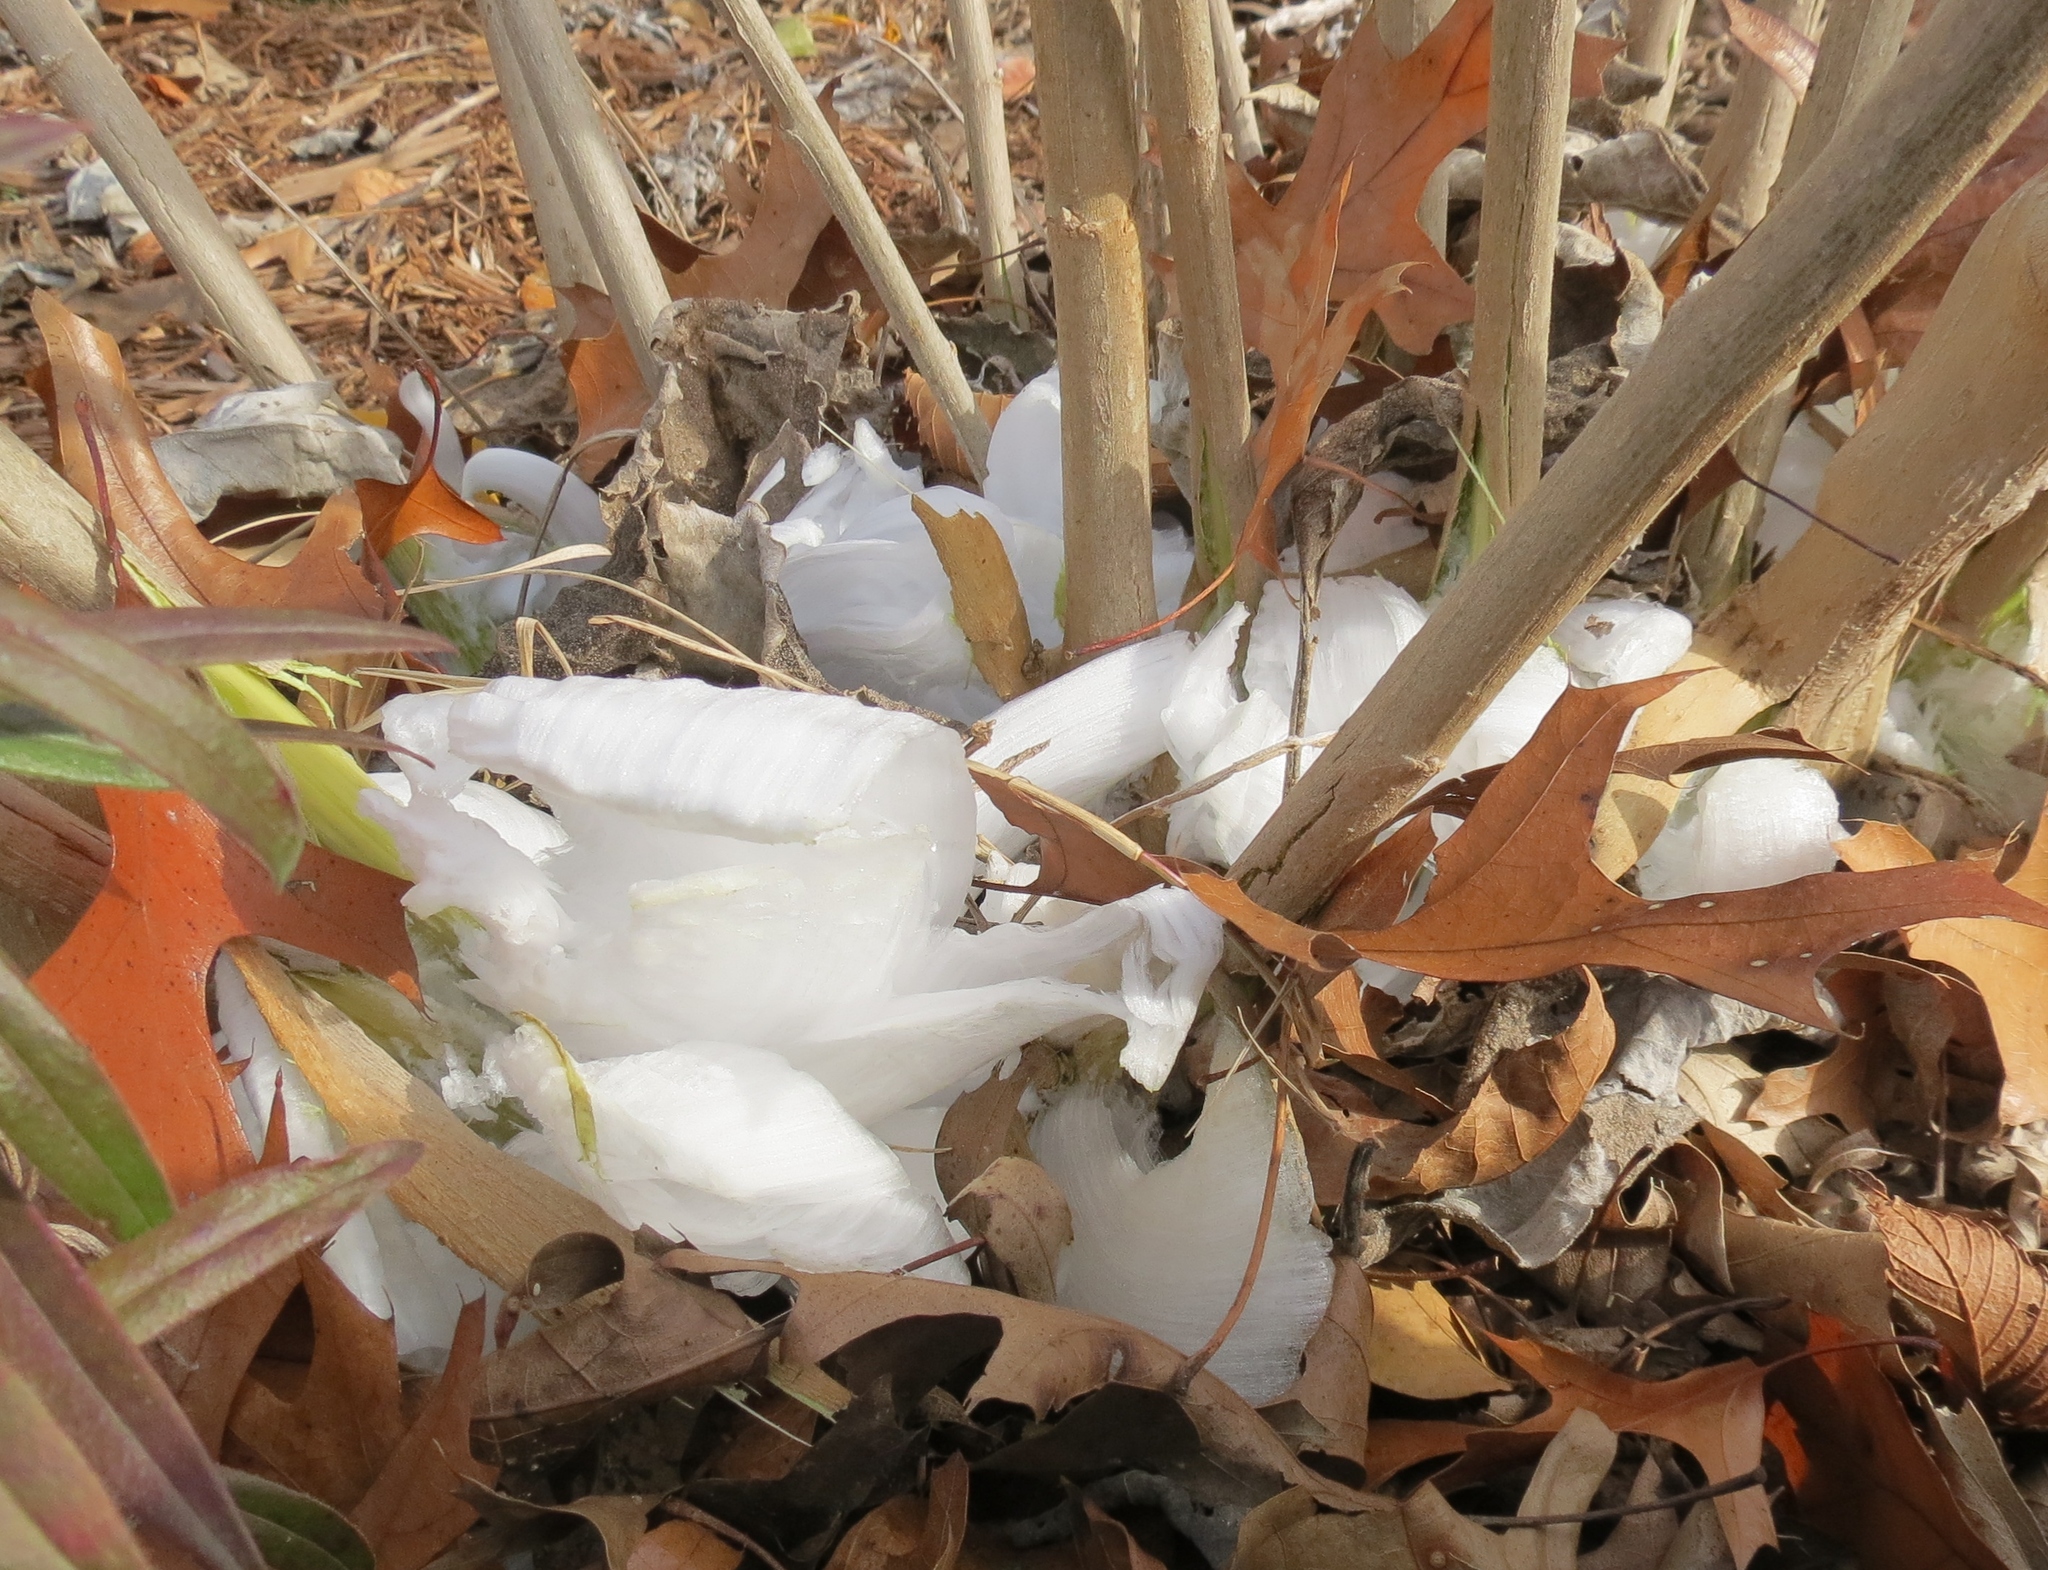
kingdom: Plantae
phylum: Tracheophyta
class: Magnoliopsida
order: Asterales
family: Asteraceae
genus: Verbesina
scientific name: Verbesina virginica
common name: Frostweed
